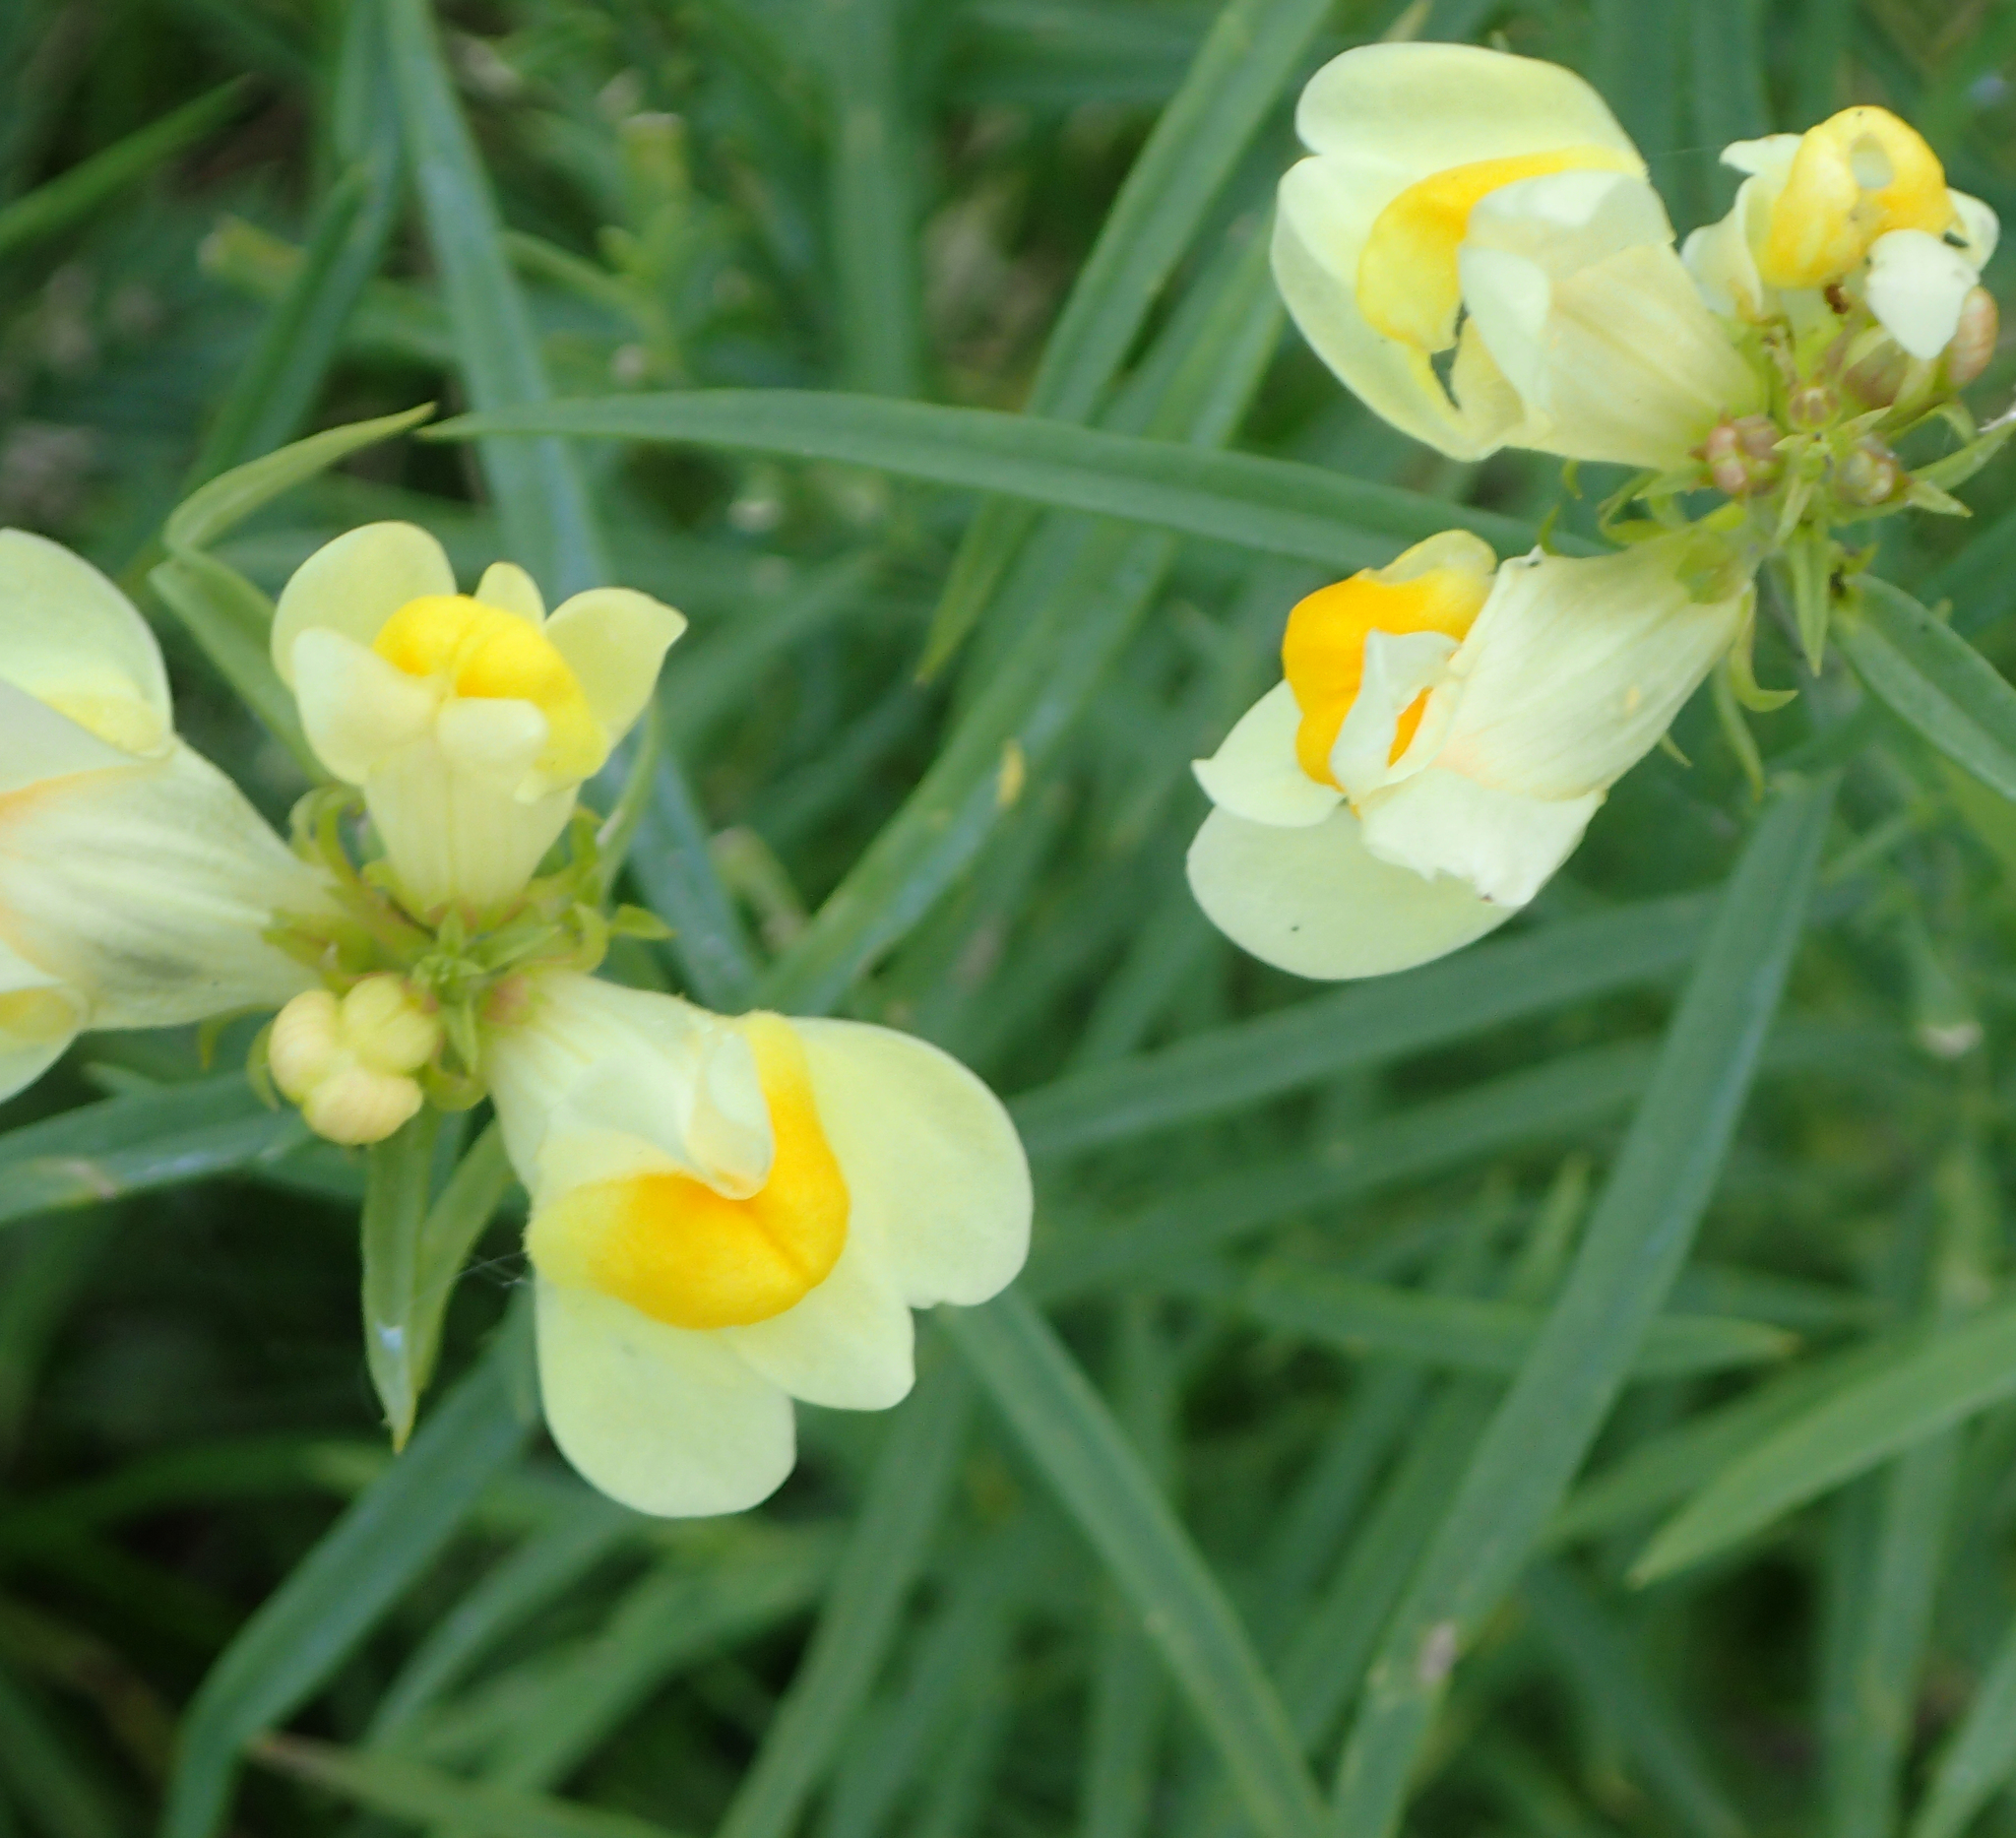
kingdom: Plantae
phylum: Tracheophyta
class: Magnoliopsida
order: Lamiales
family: Plantaginaceae
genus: Linaria
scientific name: Linaria vulgaris
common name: Butter and eggs
